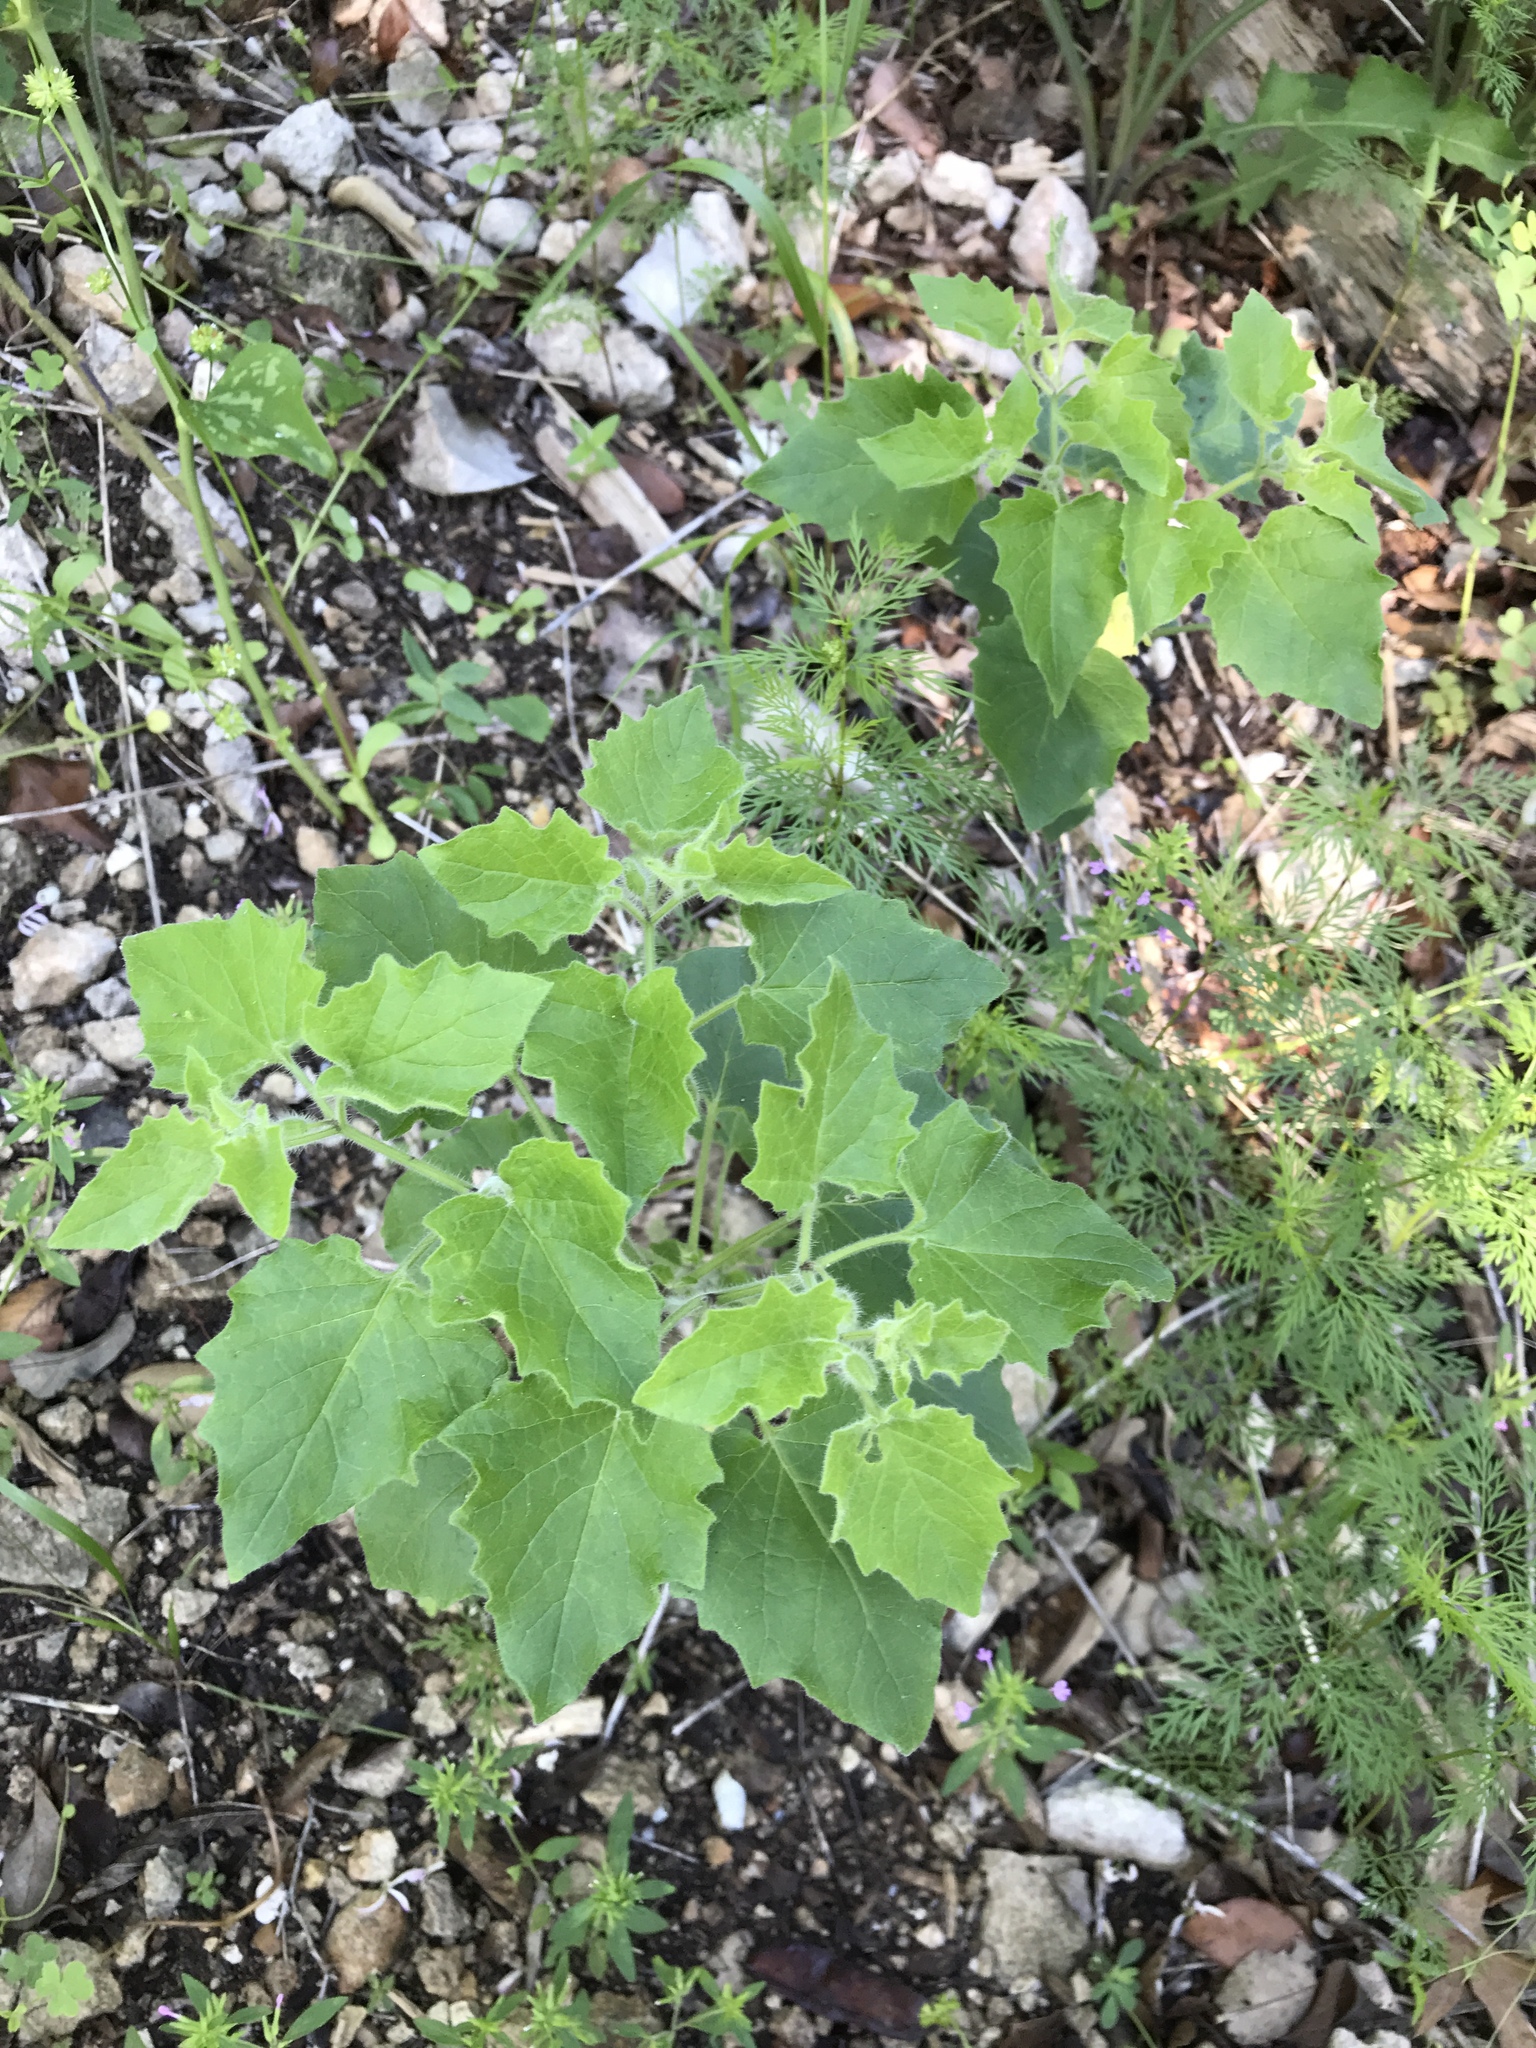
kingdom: Plantae
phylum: Tracheophyta
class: Magnoliopsida
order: Solanales
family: Solanaceae
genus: Physalis
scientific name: Physalis heterophylla
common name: Clammy ground-cherry
